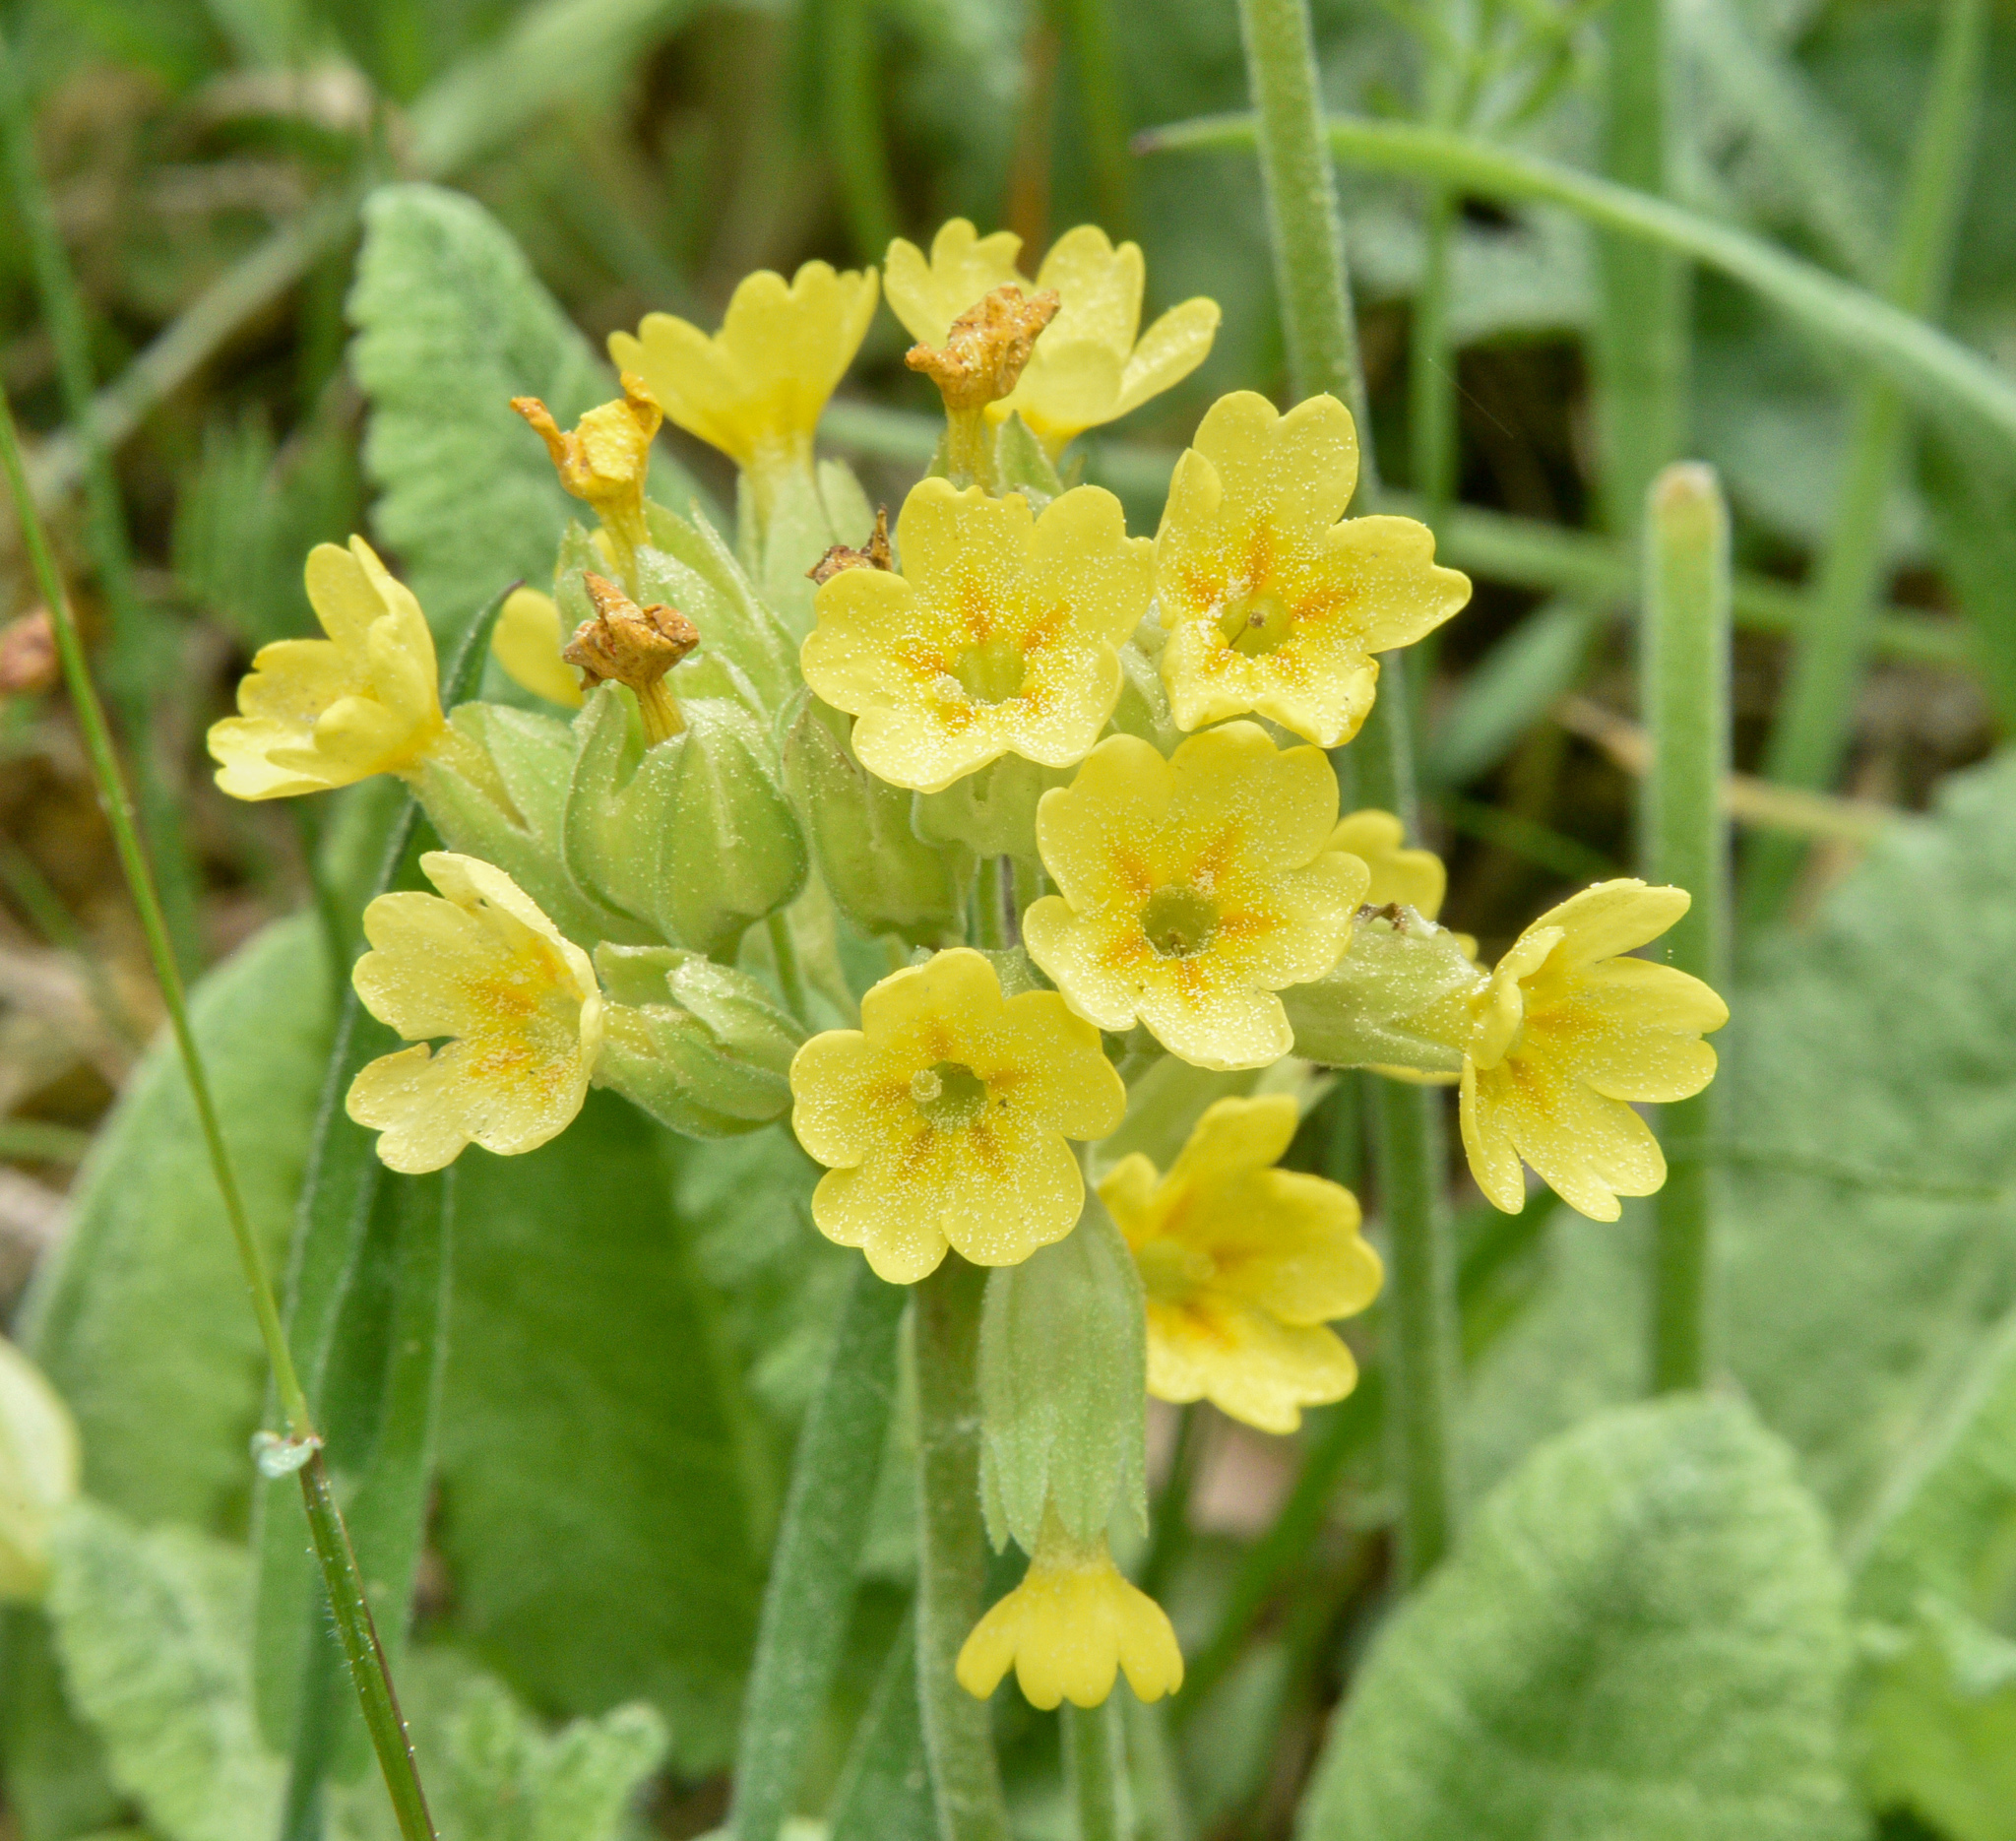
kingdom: Plantae
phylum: Tracheophyta
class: Magnoliopsida
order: Ericales
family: Primulaceae
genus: Primula
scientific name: Primula veris
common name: Cowslip
